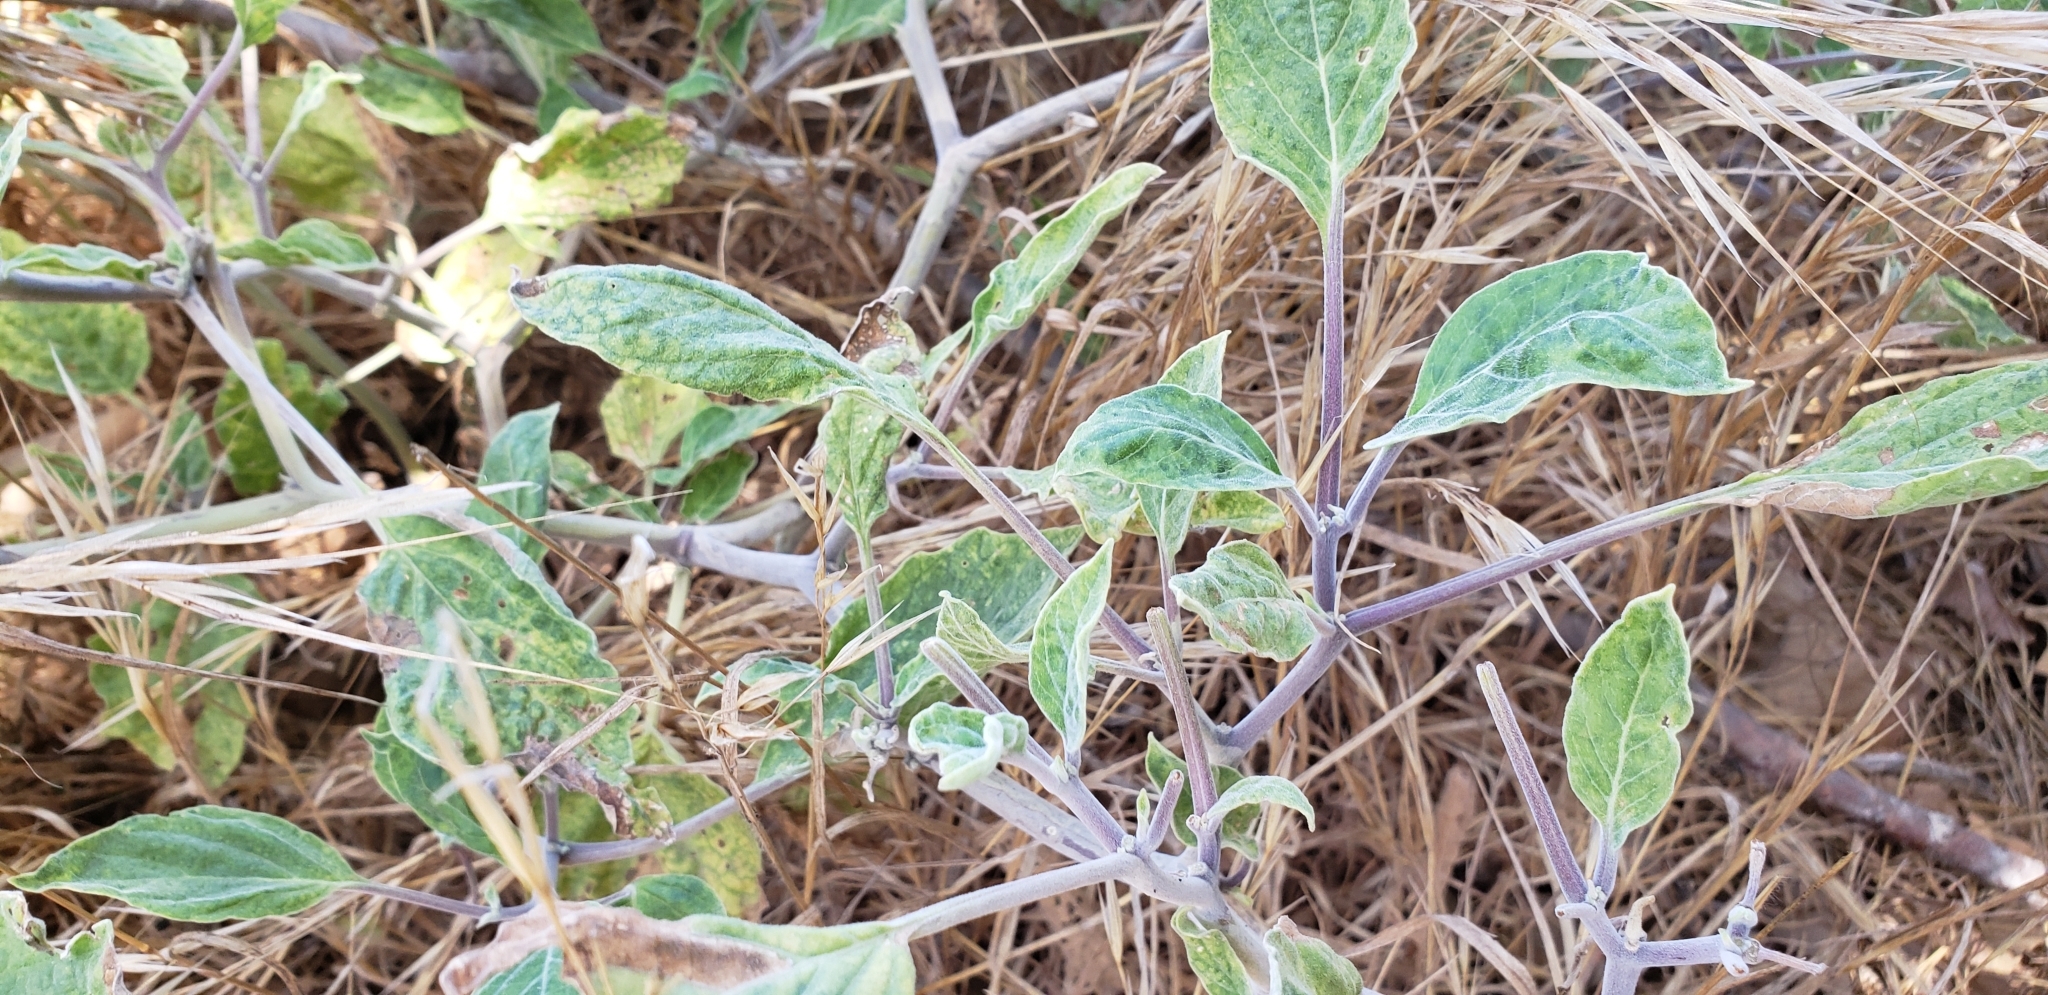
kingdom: Plantae
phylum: Tracheophyta
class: Magnoliopsida
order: Solanales
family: Solanaceae
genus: Datura
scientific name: Datura wrightii
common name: Sacred thorn-apple
